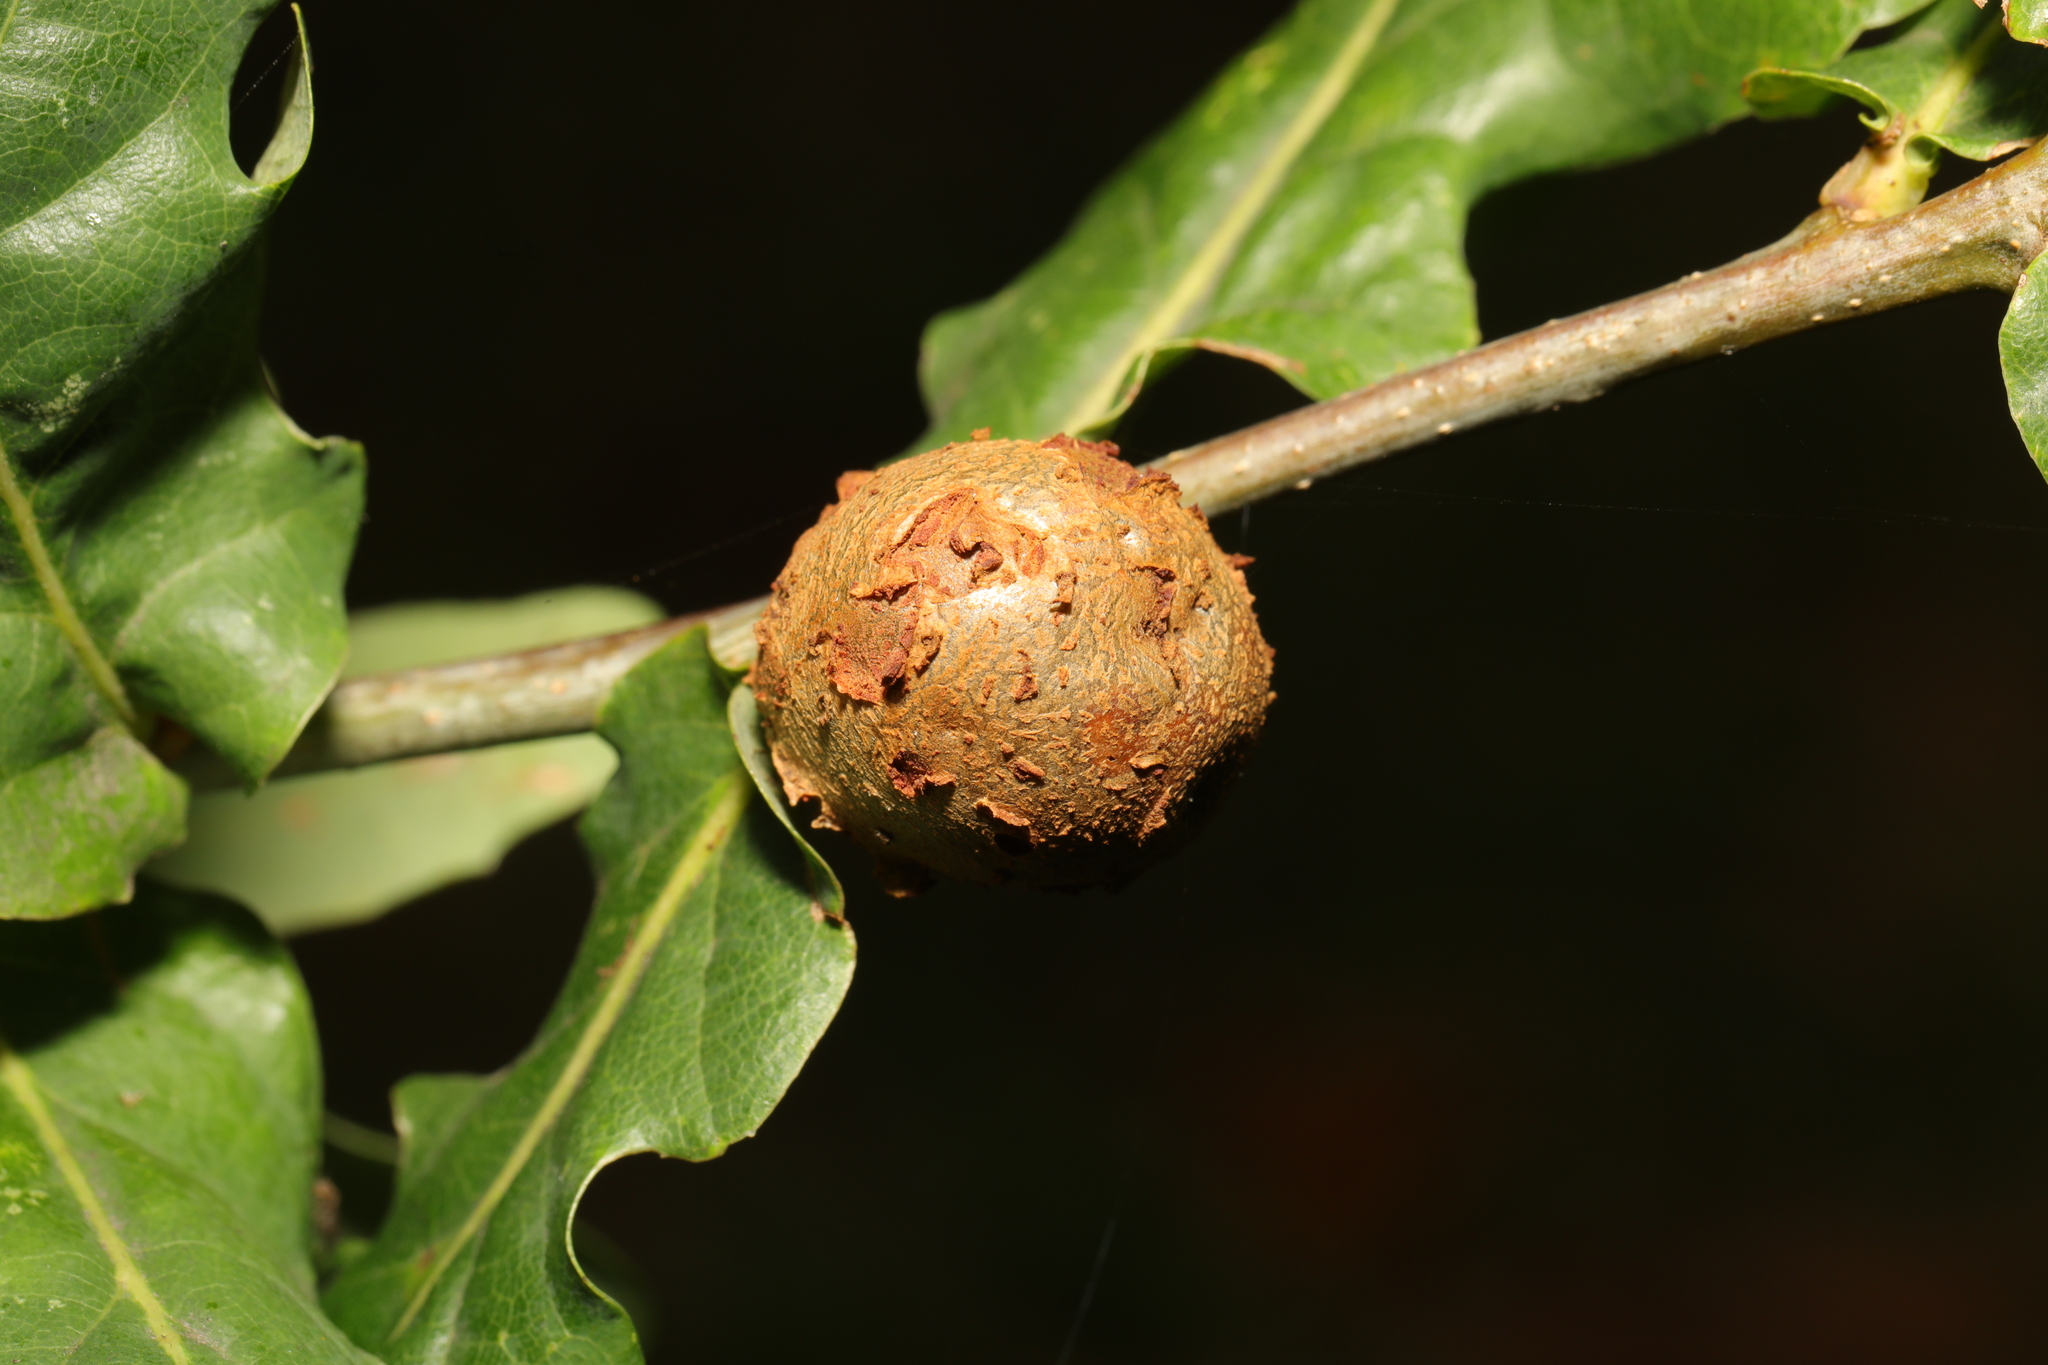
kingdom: Animalia
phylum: Arthropoda
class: Insecta
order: Hymenoptera
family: Cynipidae
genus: Andricus
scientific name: Andricus lignicolus
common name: Cola-nut gall
